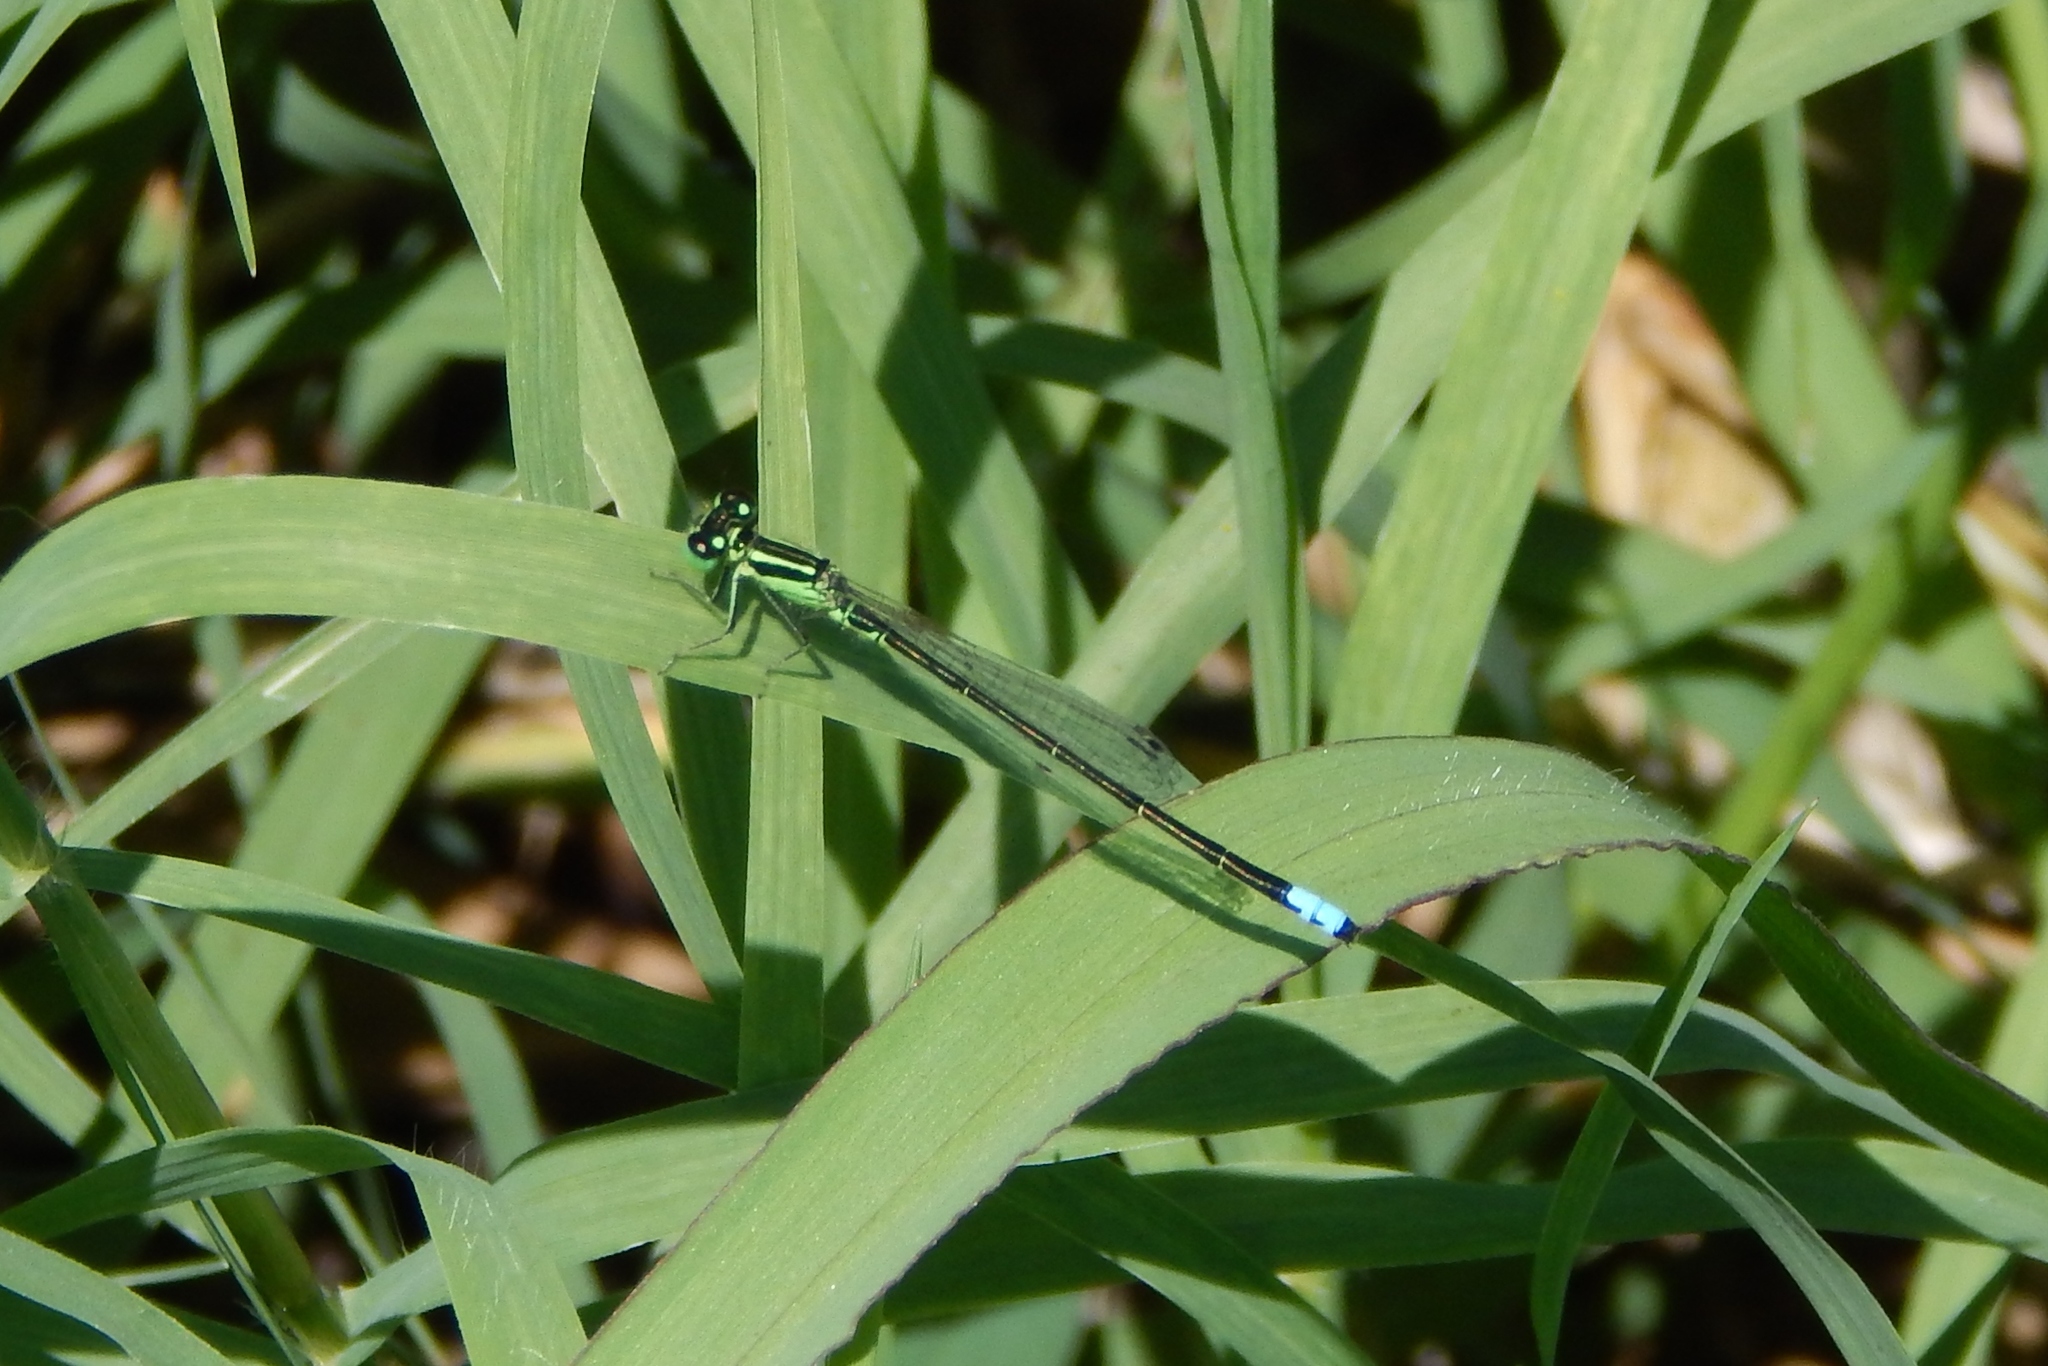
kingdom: Animalia
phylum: Arthropoda
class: Insecta
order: Odonata
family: Coenagrionidae
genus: Ischnura
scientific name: Ischnura verticalis
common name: Eastern forktail
